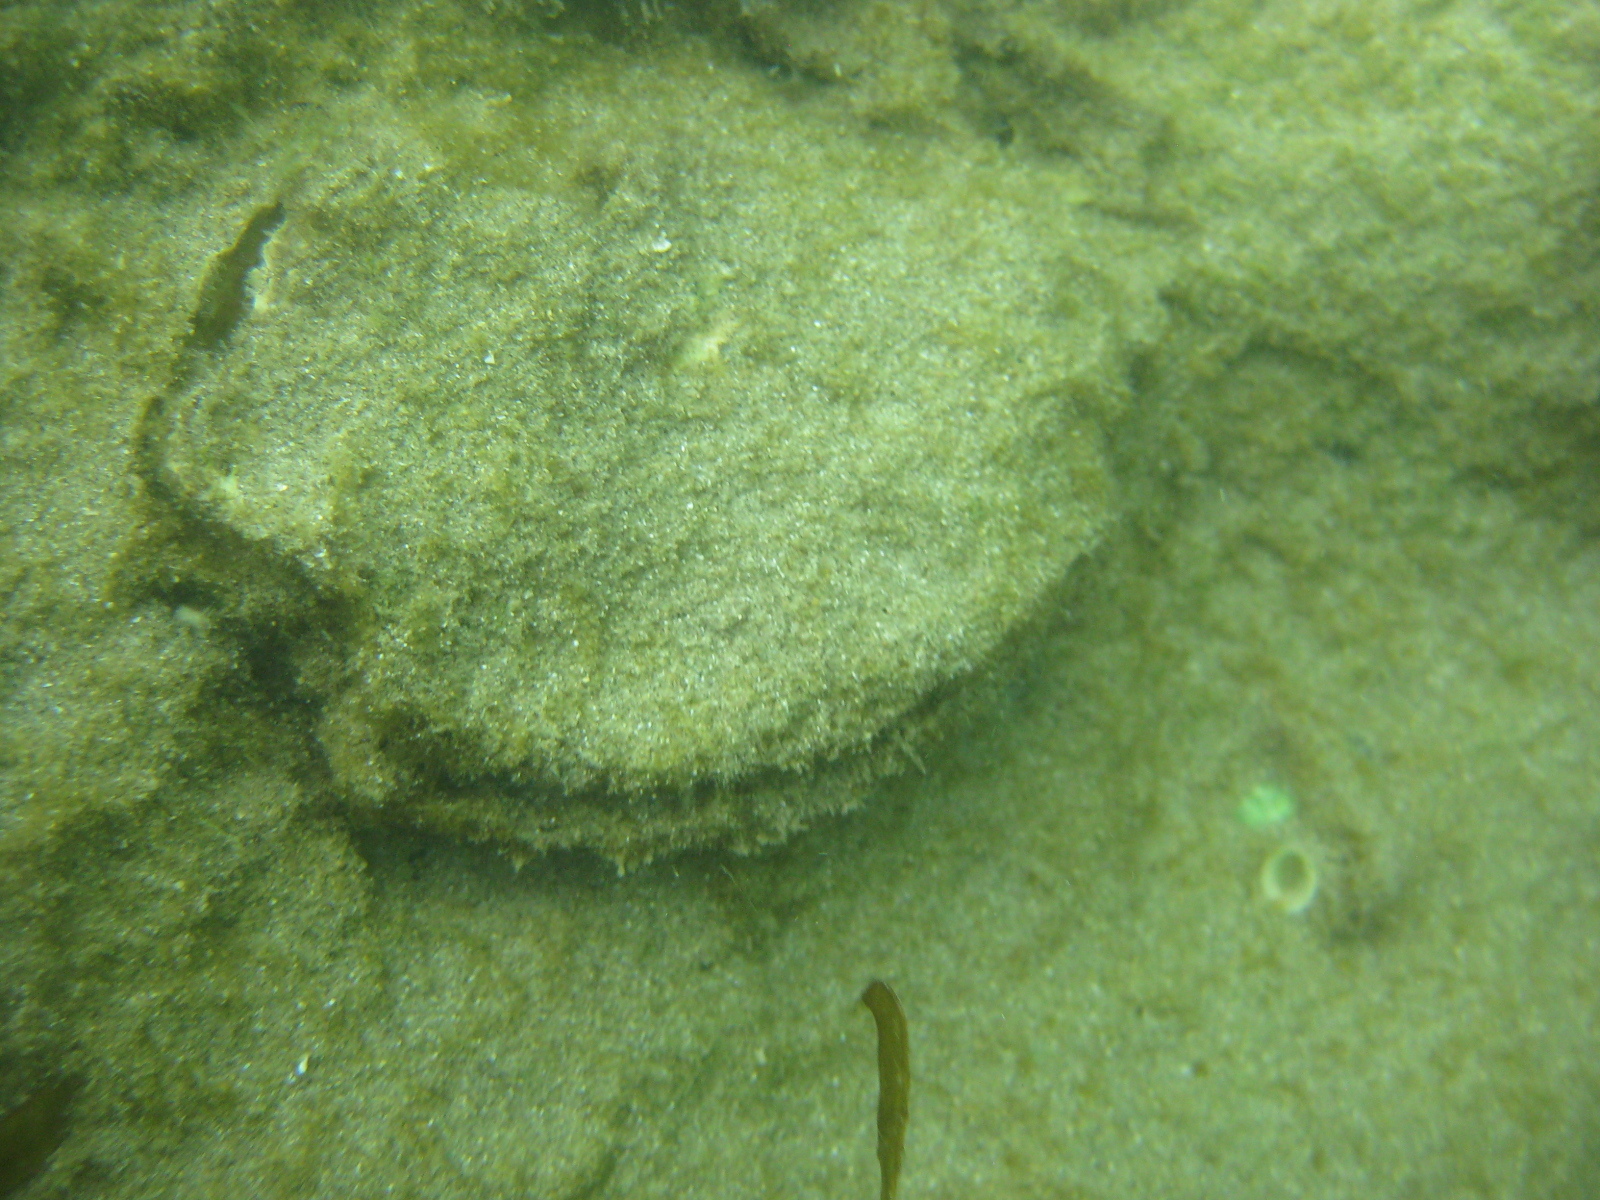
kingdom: Animalia
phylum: Mollusca
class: Bivalvia
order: Ostreida
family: Ostreidae
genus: Magallana
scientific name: Magallana gigas
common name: Pacific oyster
